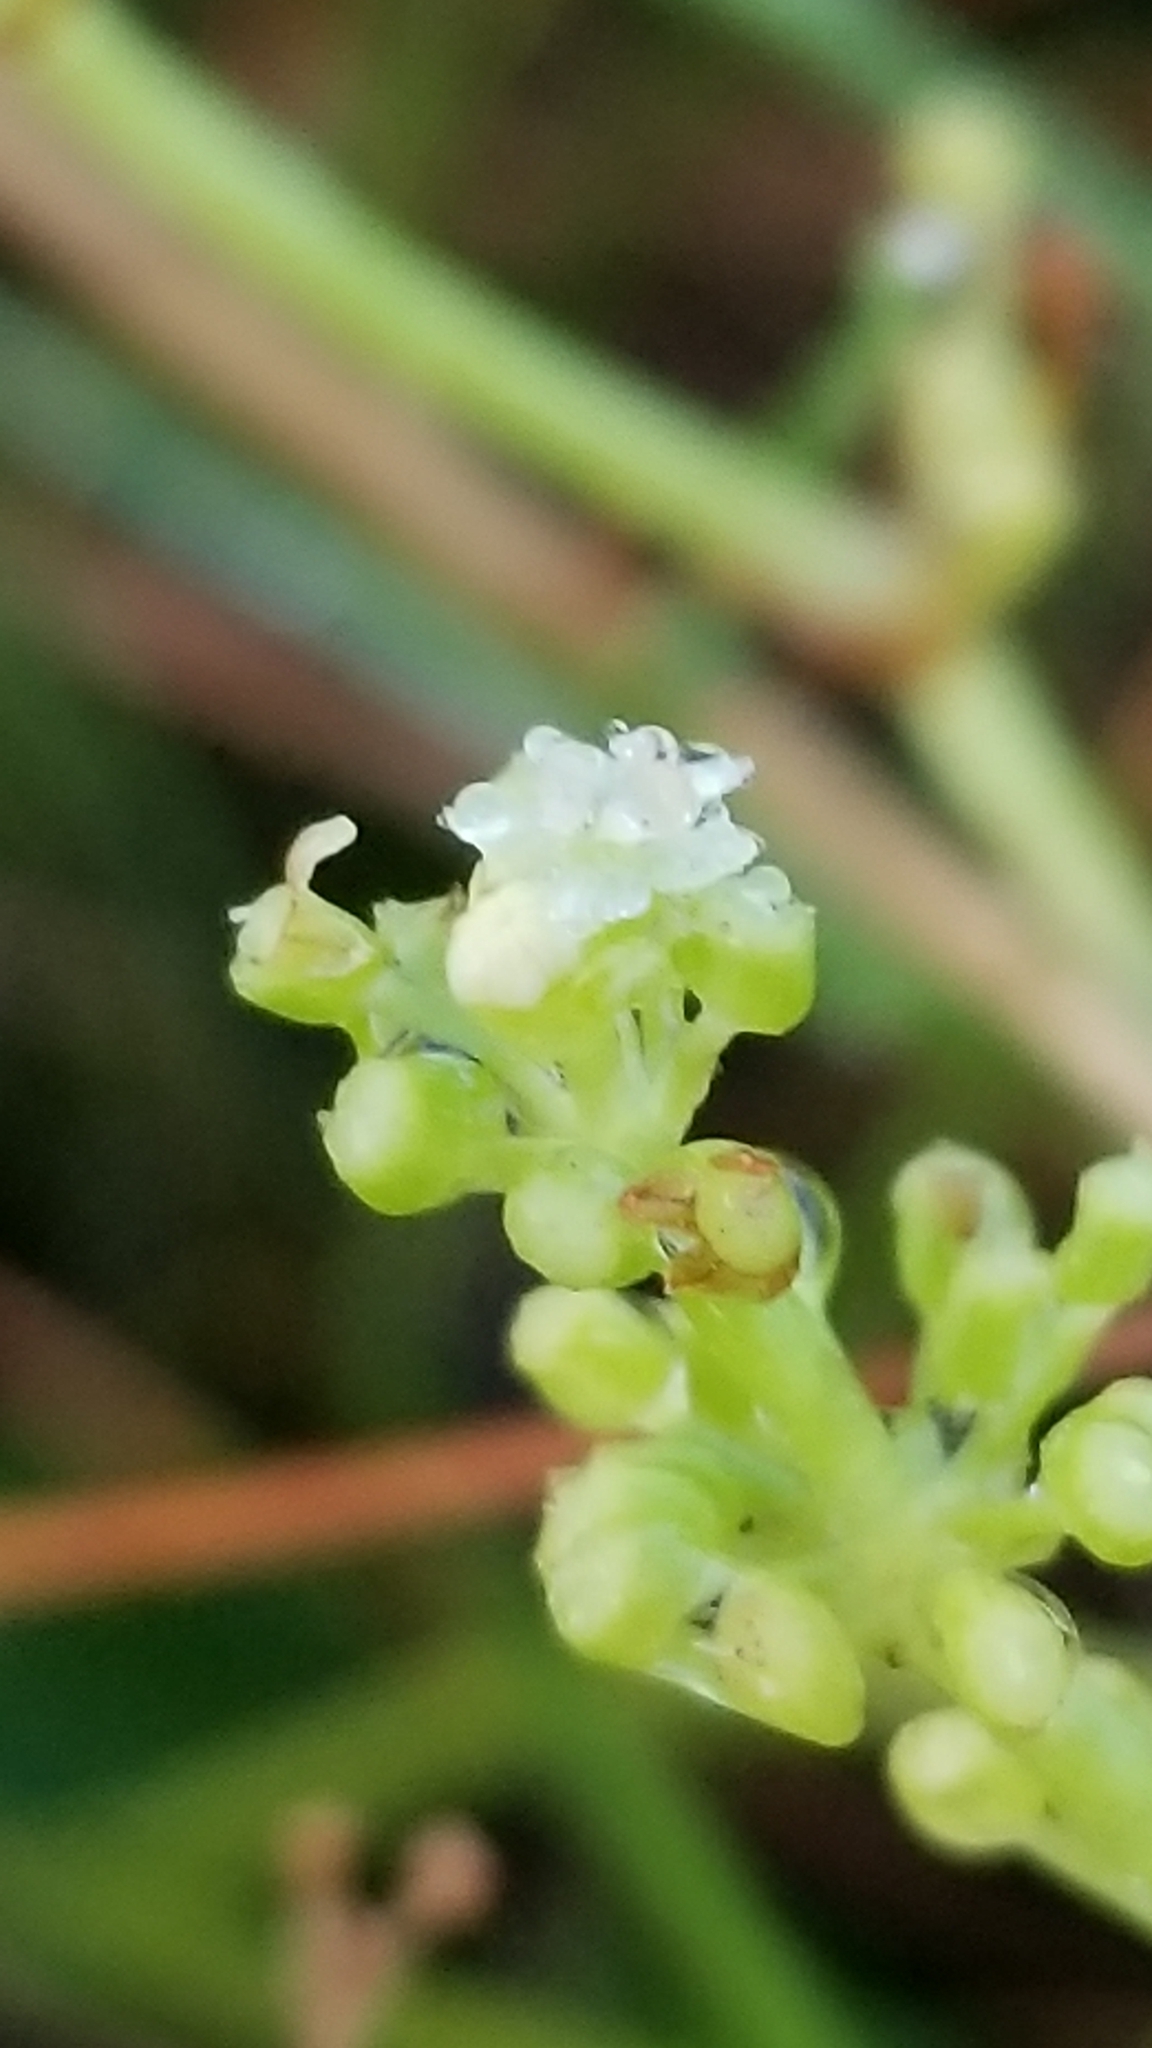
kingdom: Plantae
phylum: Tracheophyta
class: Magnoliopsida
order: Apiales
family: Araliaceae
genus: Hydrocotyle
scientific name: Hydrocotyle bonariensis
